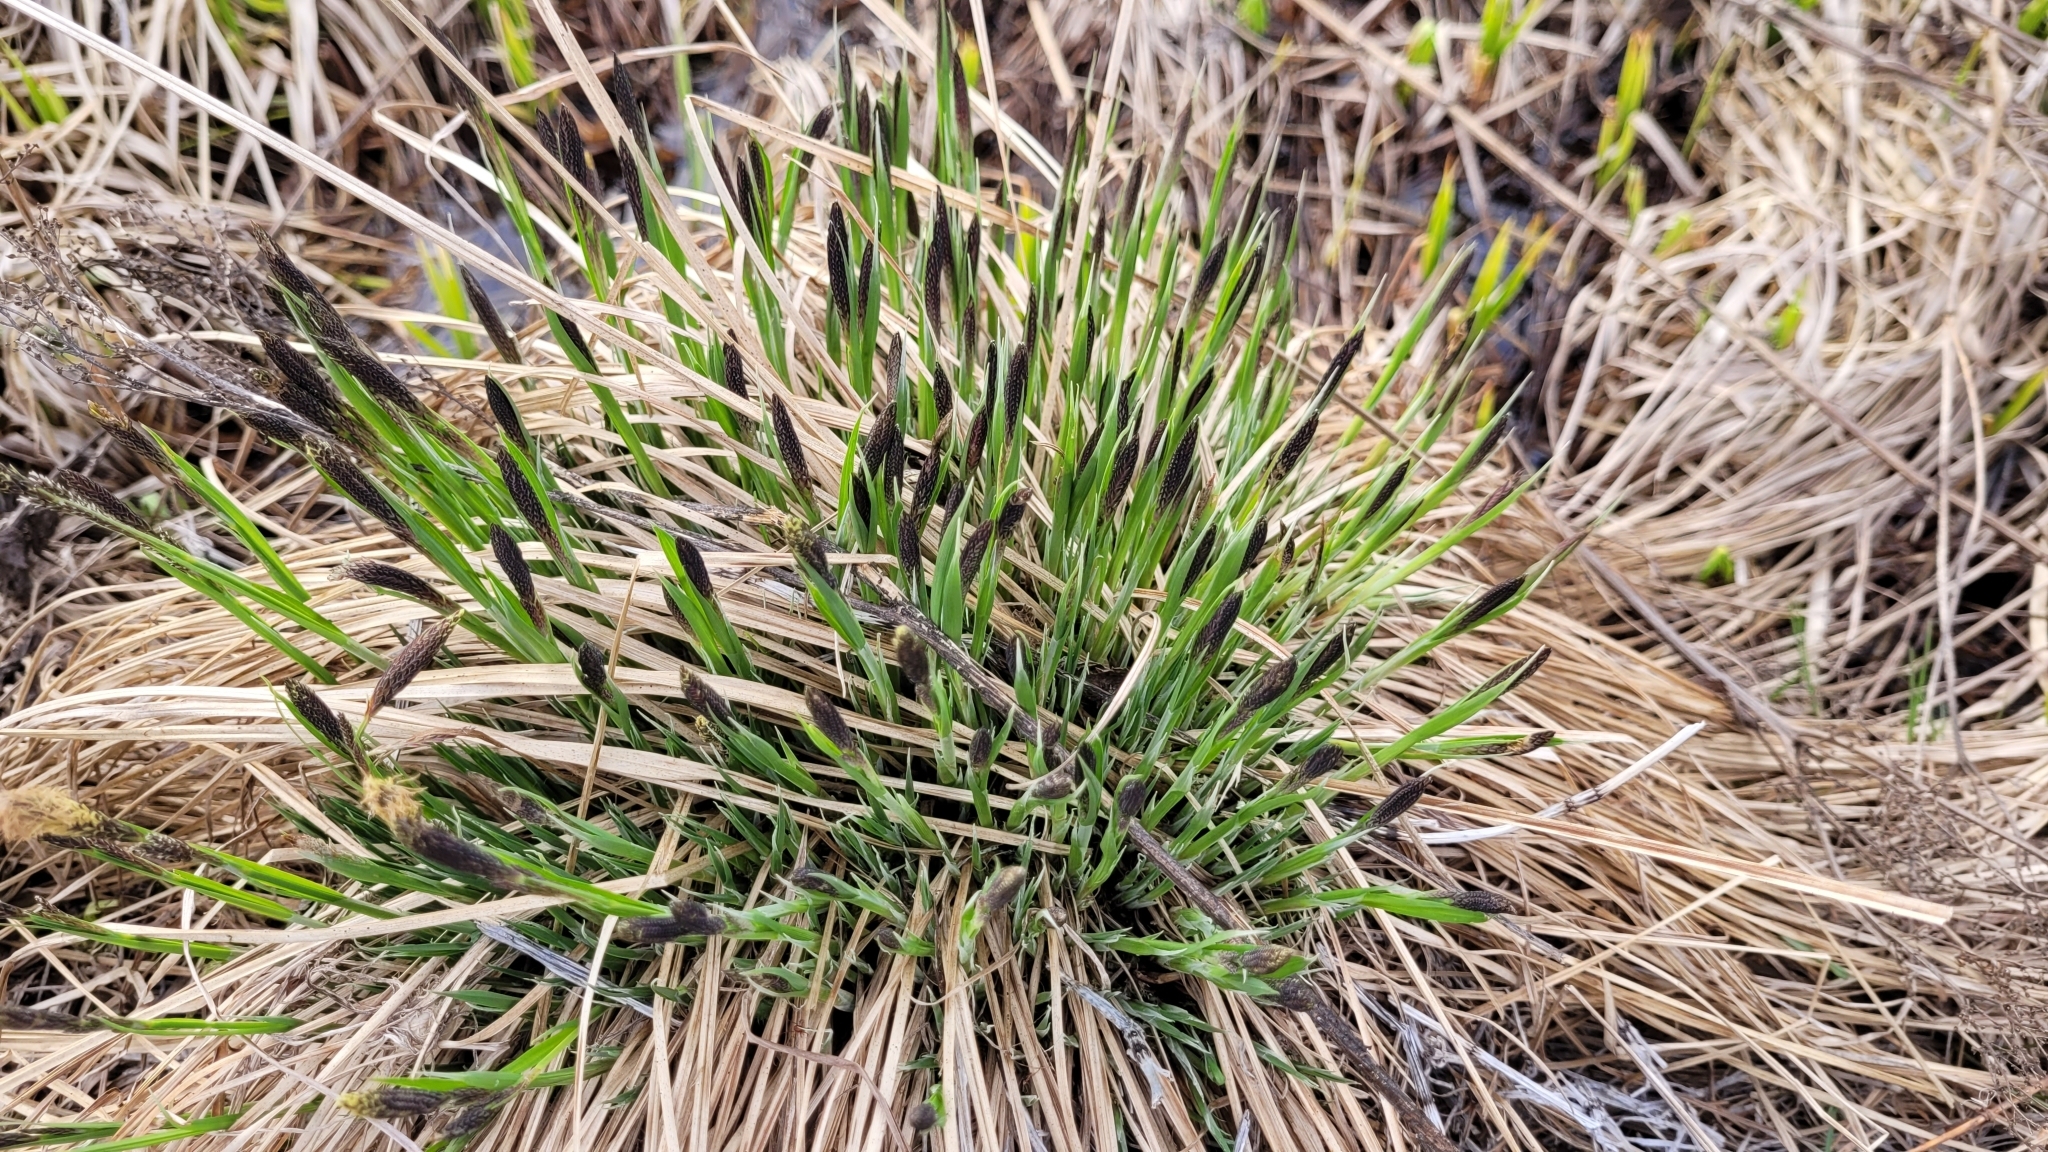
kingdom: Plantae
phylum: Tracheophyta
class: Liliopsida
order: Poales
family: Cyperaceae
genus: Carex
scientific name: Carex cespitosa
